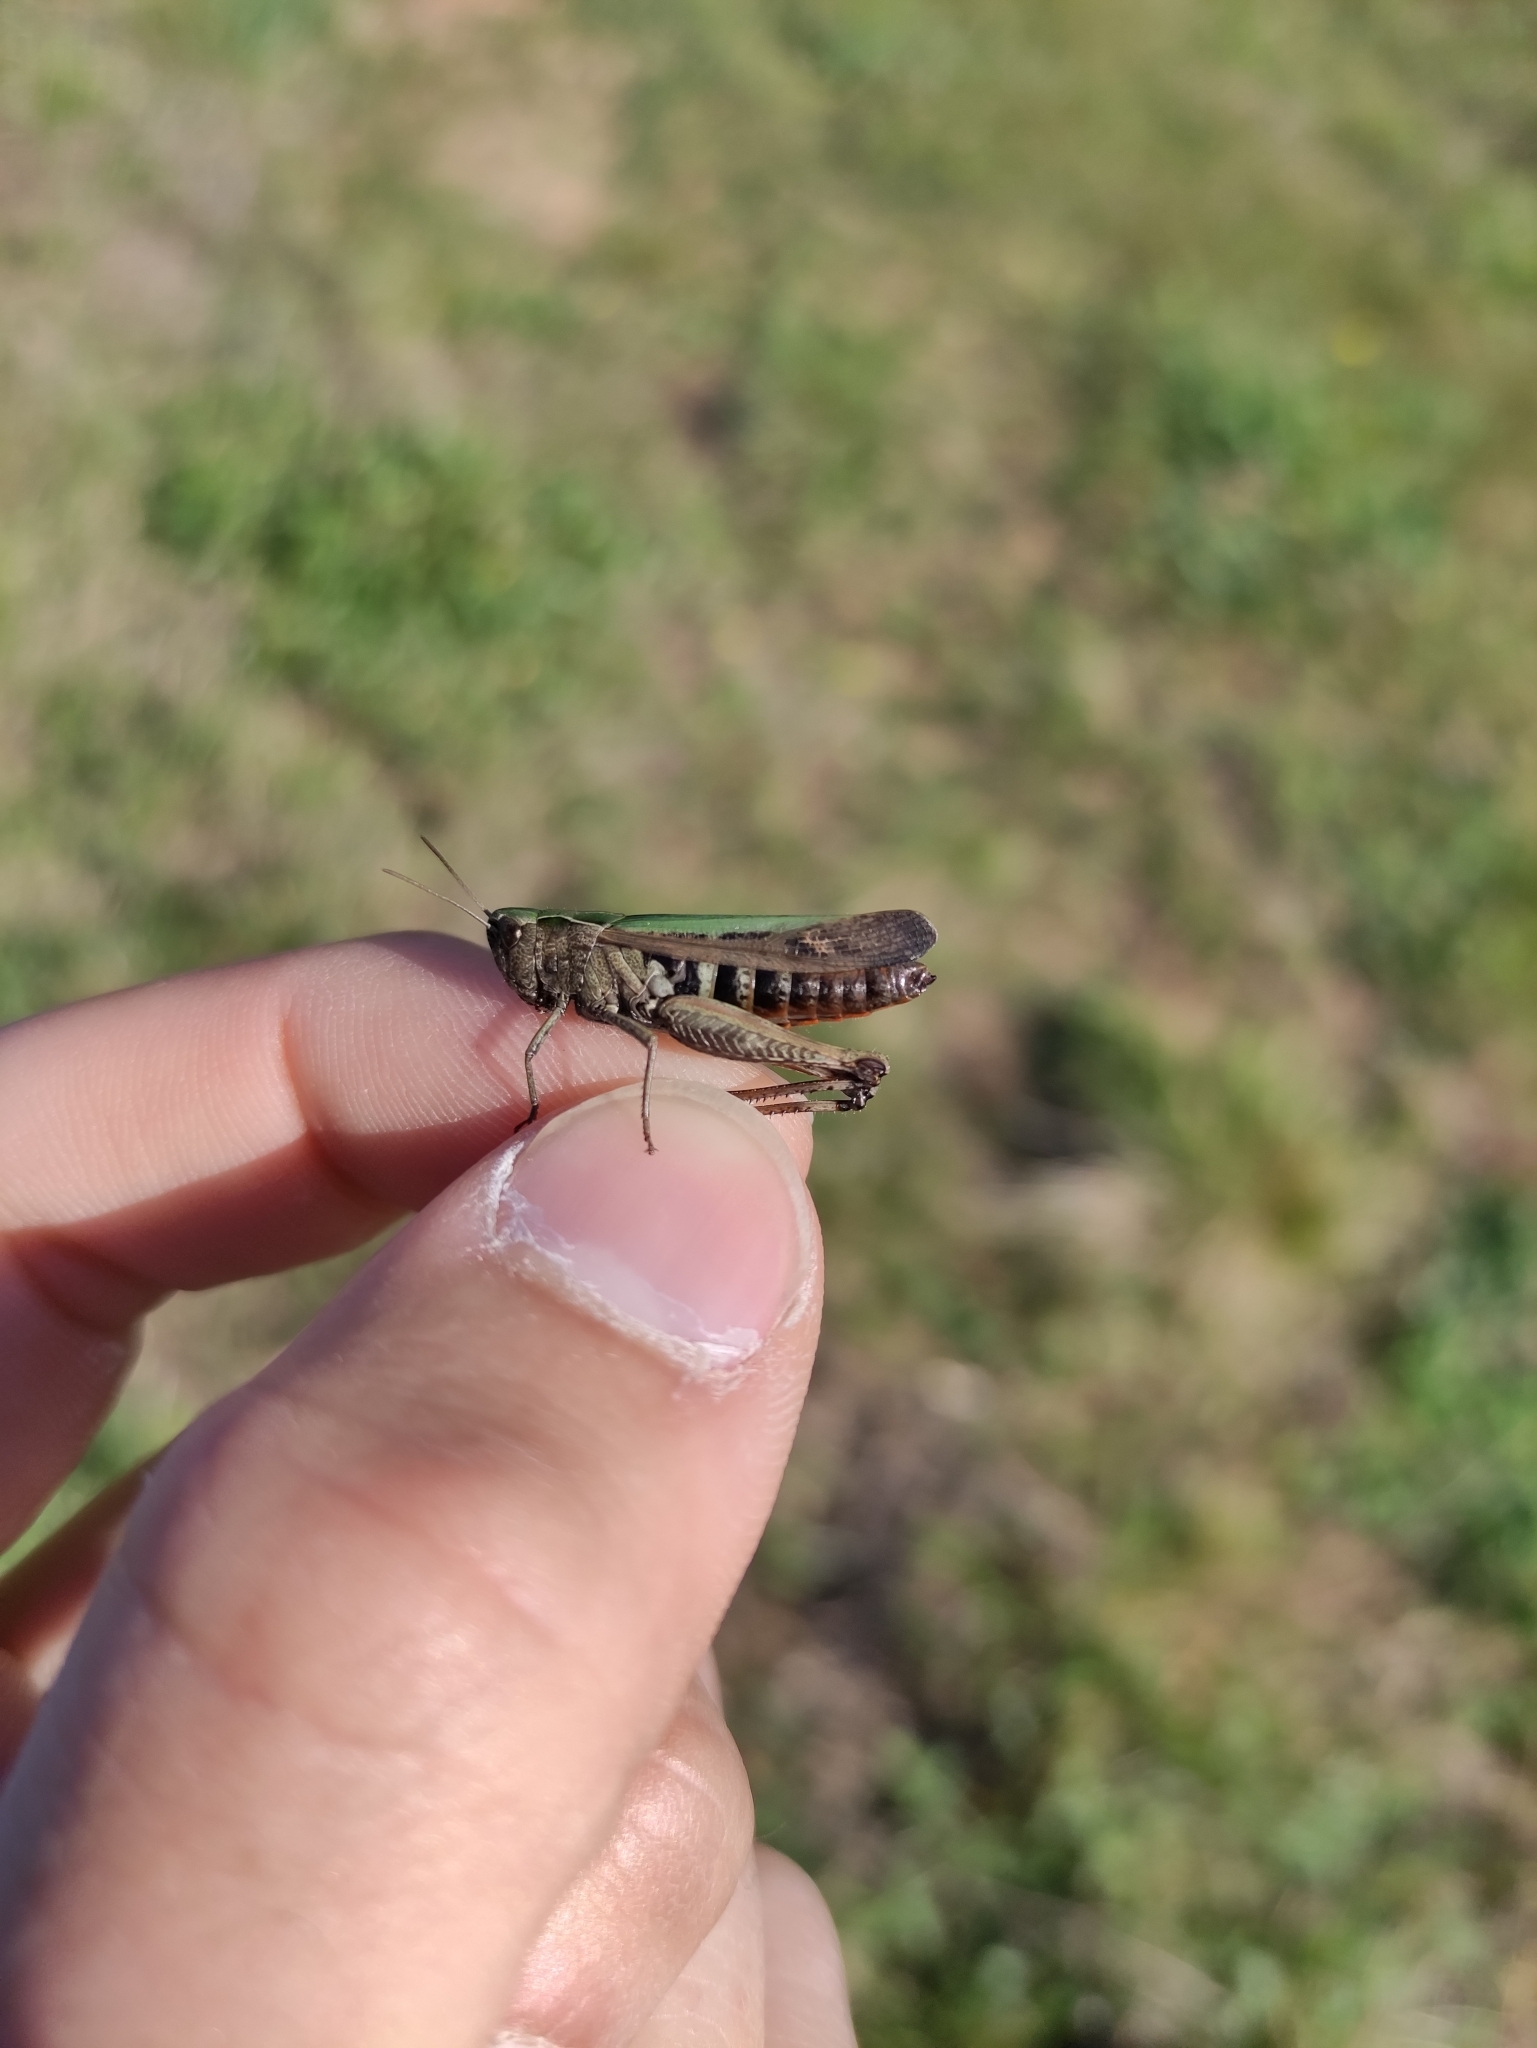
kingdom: Animalia
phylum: Arthropoda
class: Insecta
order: Orthoptera
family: Acrididae
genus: Omocestus
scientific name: Omocestus rufipes
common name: Woodland grasshopper
